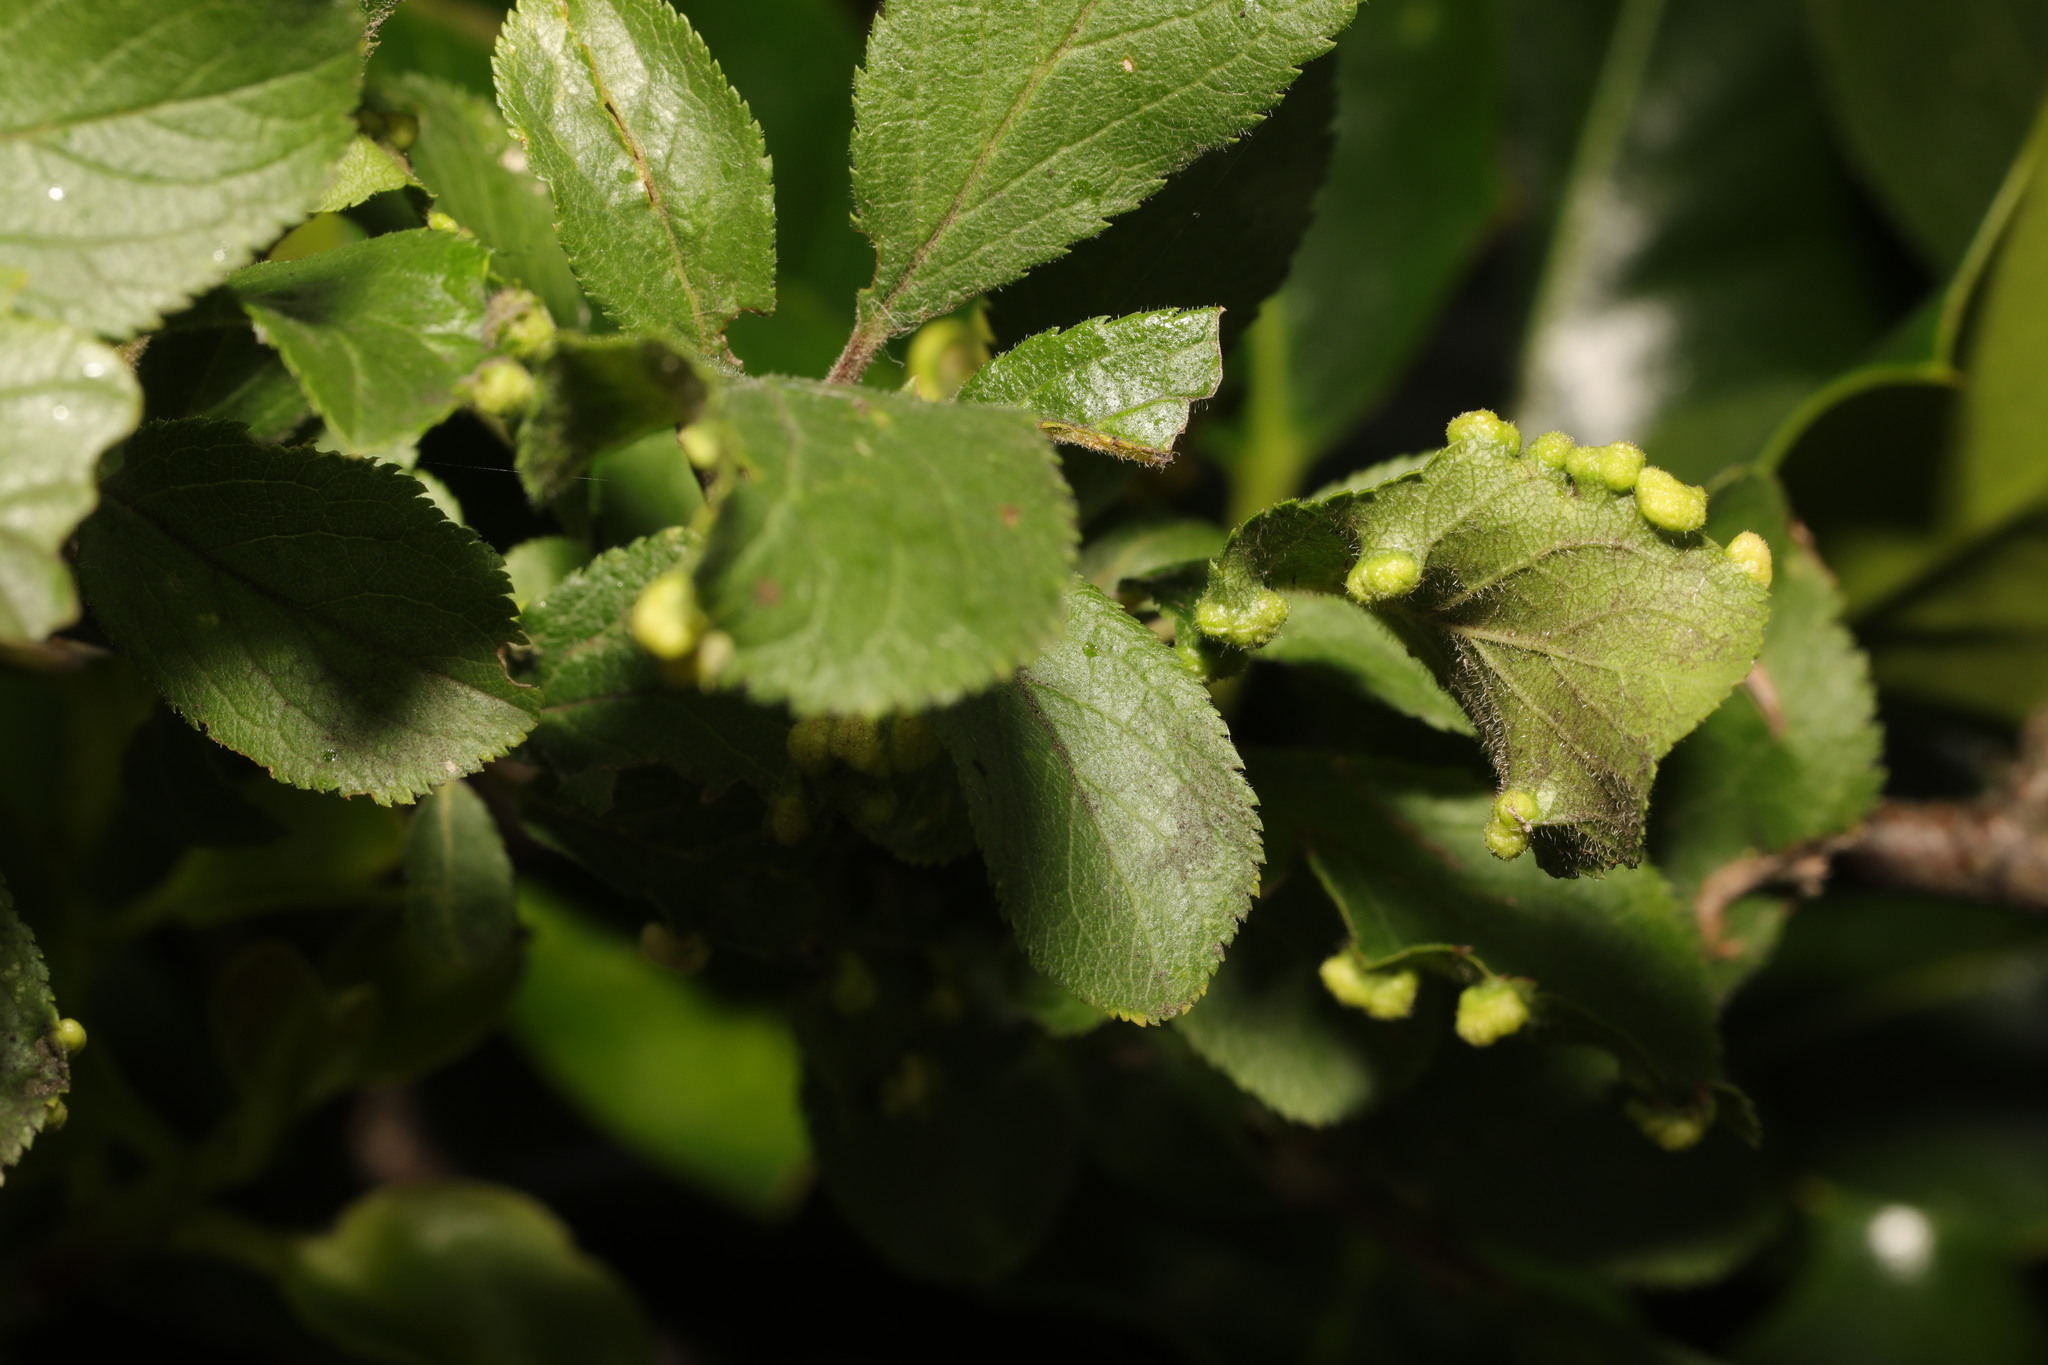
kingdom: Animalia
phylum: Arthropoda
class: Arachnida
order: Trombidiformes
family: Eriophyidae
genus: Eriophyes
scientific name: Eriophyes similis
